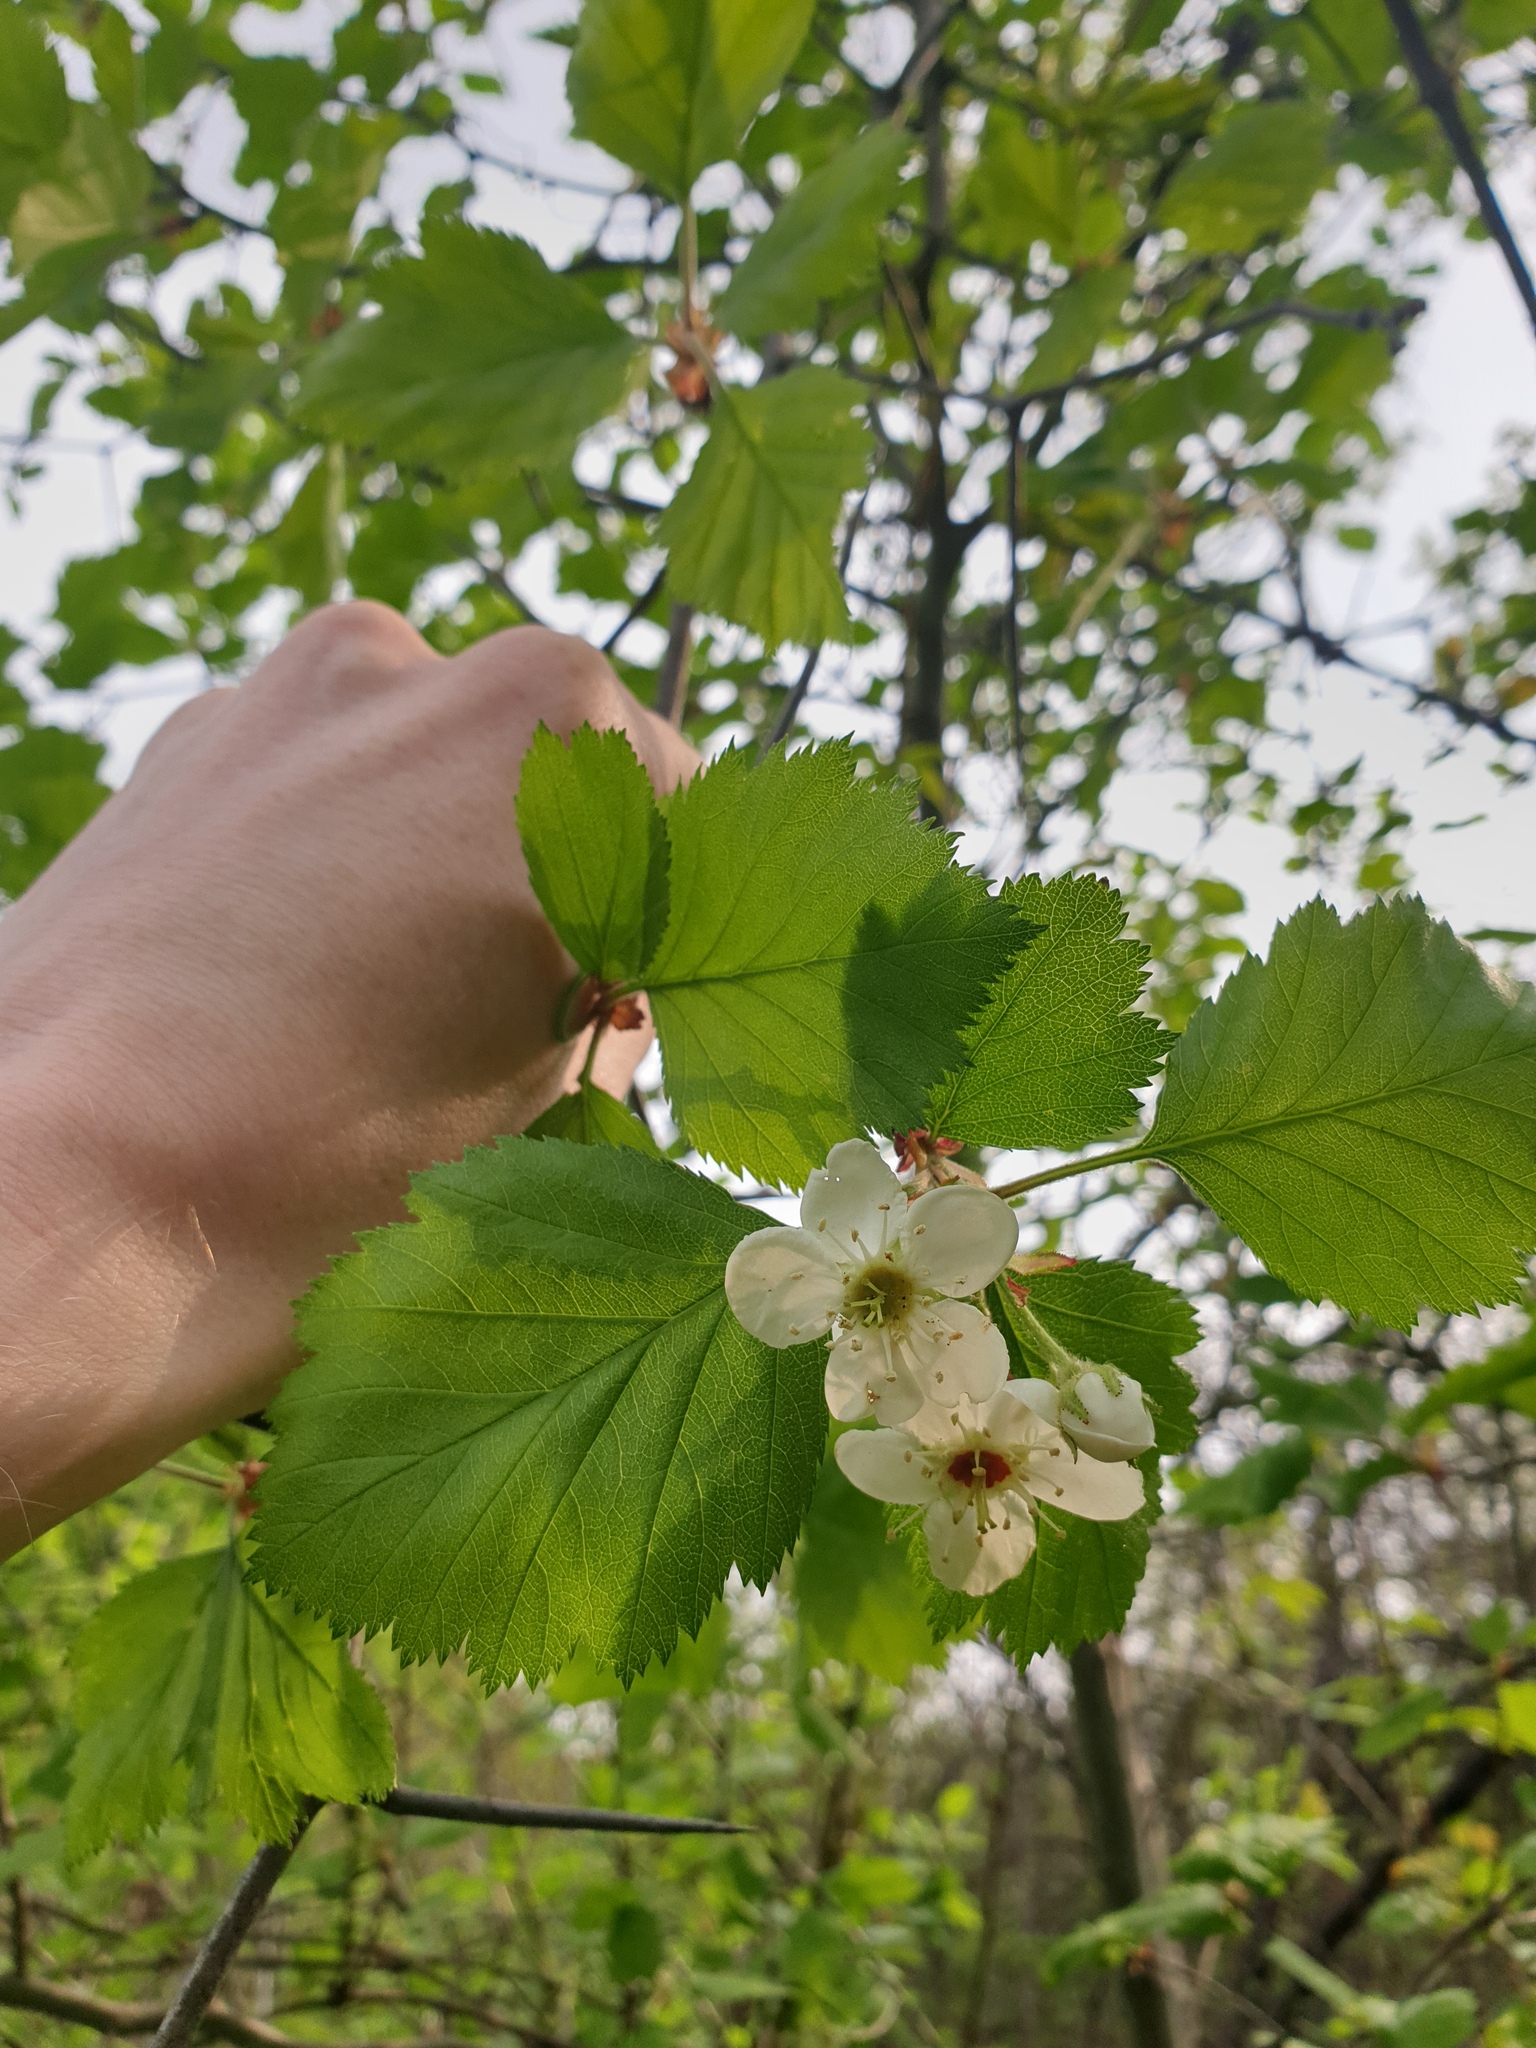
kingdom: Plantae
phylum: Tracheophyta
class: Magnoliopsida
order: Rosales
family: Rosaceae
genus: Crataegus
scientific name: Crataegus submollis
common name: Hairy cockspurthorn
